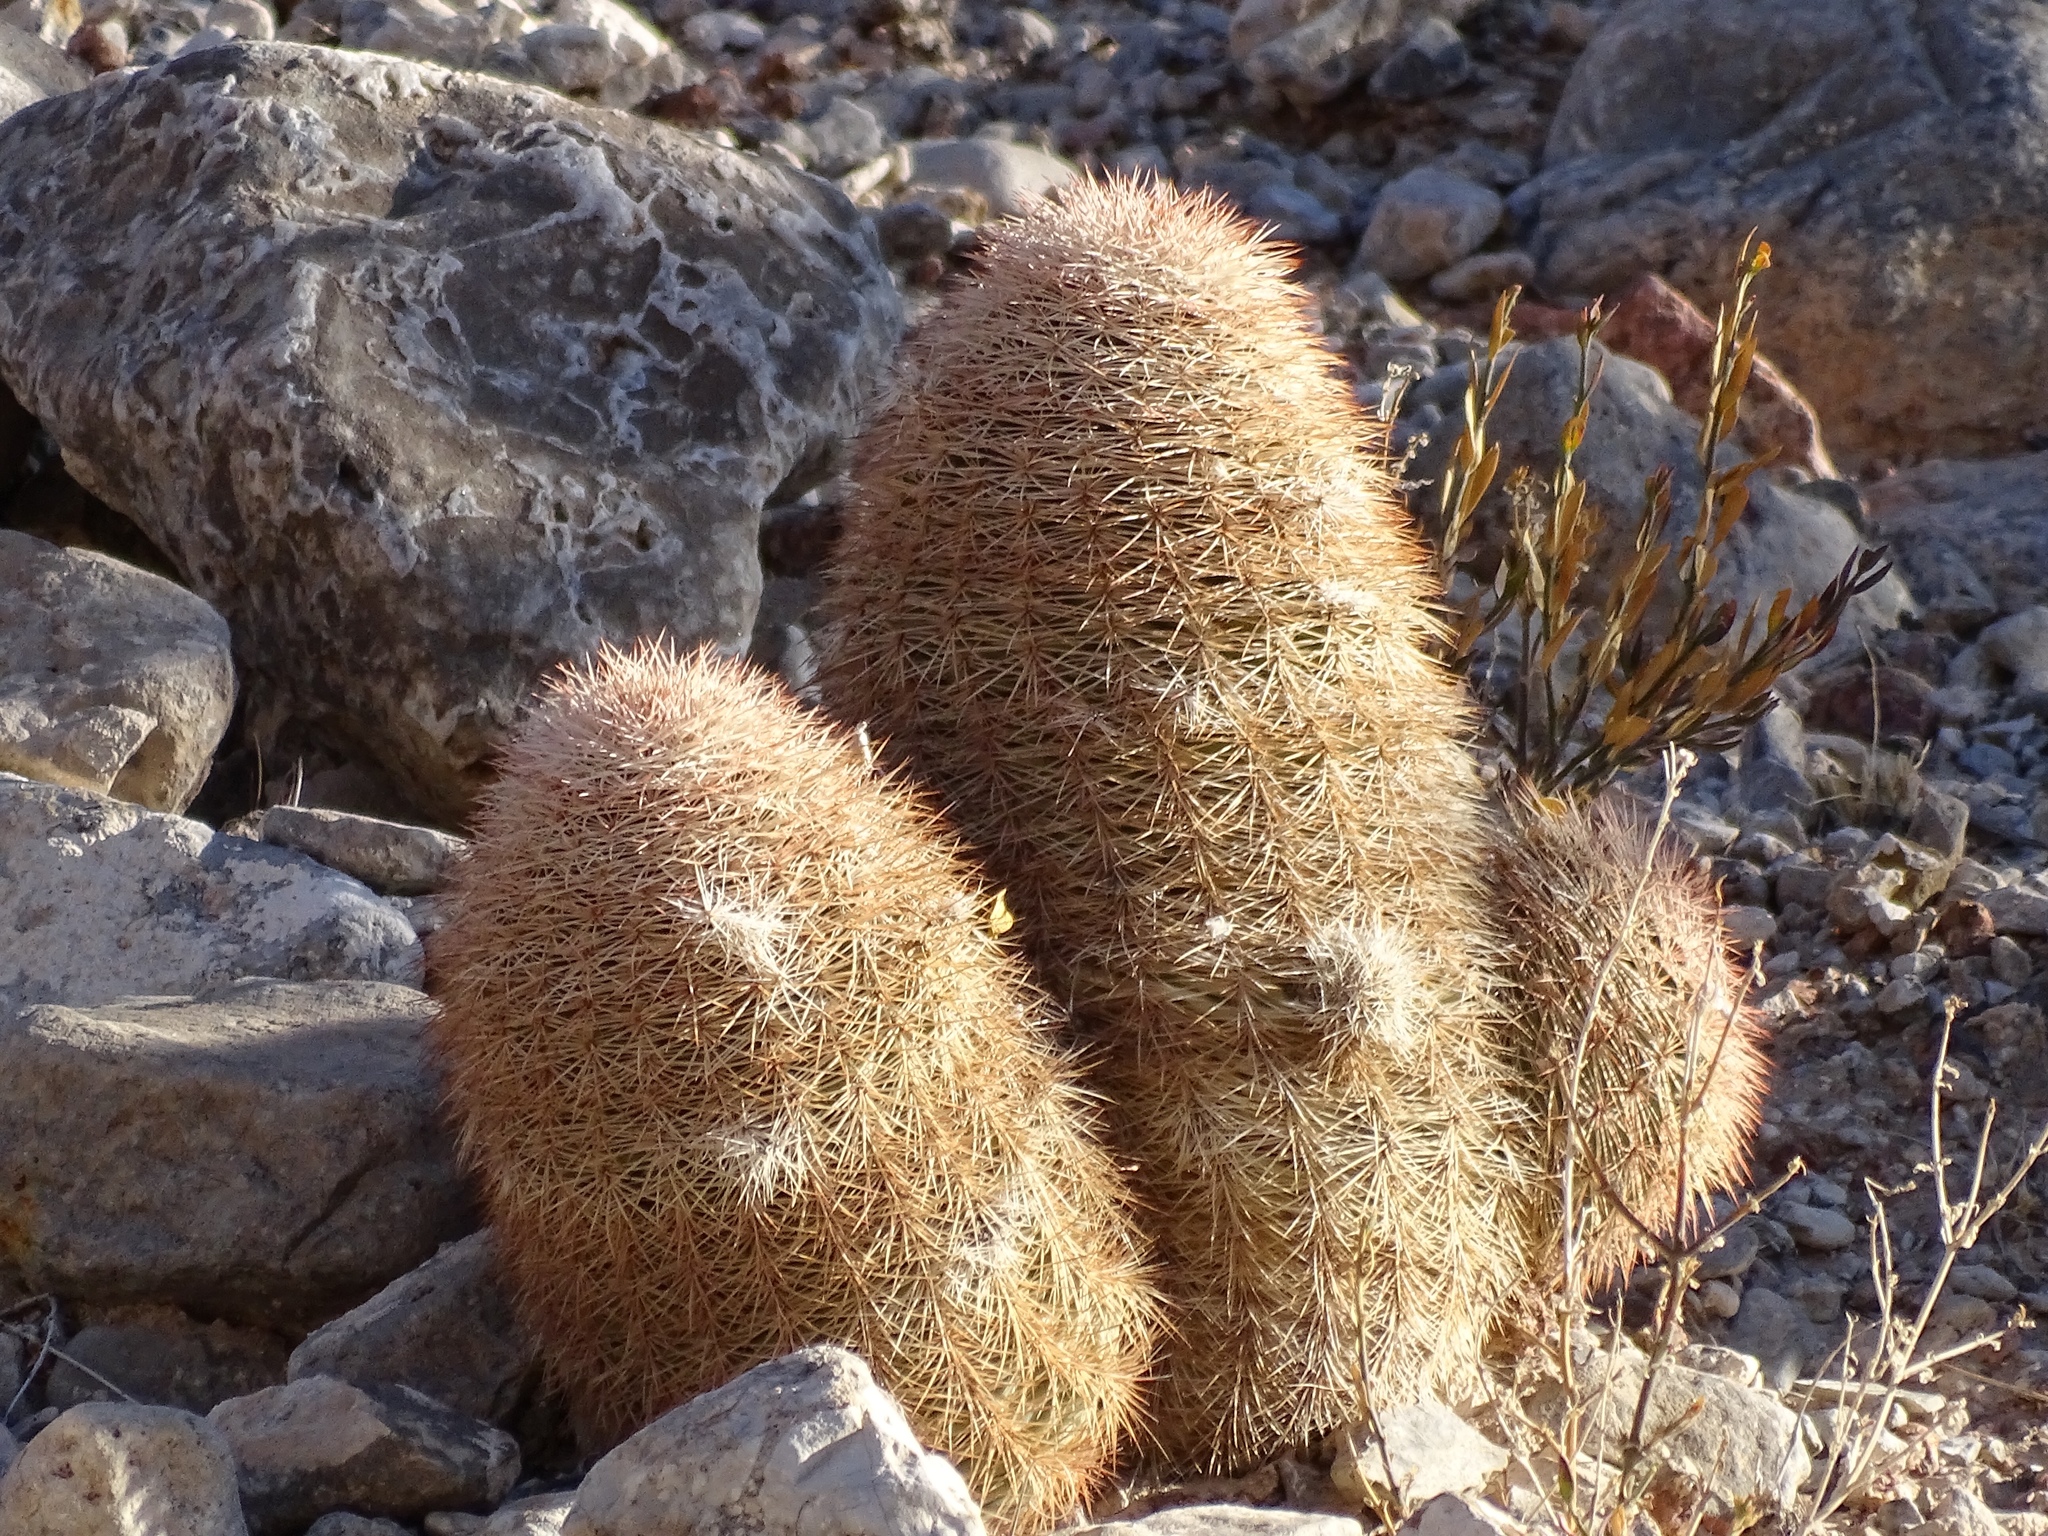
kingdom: Plantae
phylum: Tracheophyta
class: Magnoliopsida
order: Caryophyllales
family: Cactaceae
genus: Echinocereus
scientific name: Echinocereus dasyacanthus
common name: Spiny hedgehog cactus
